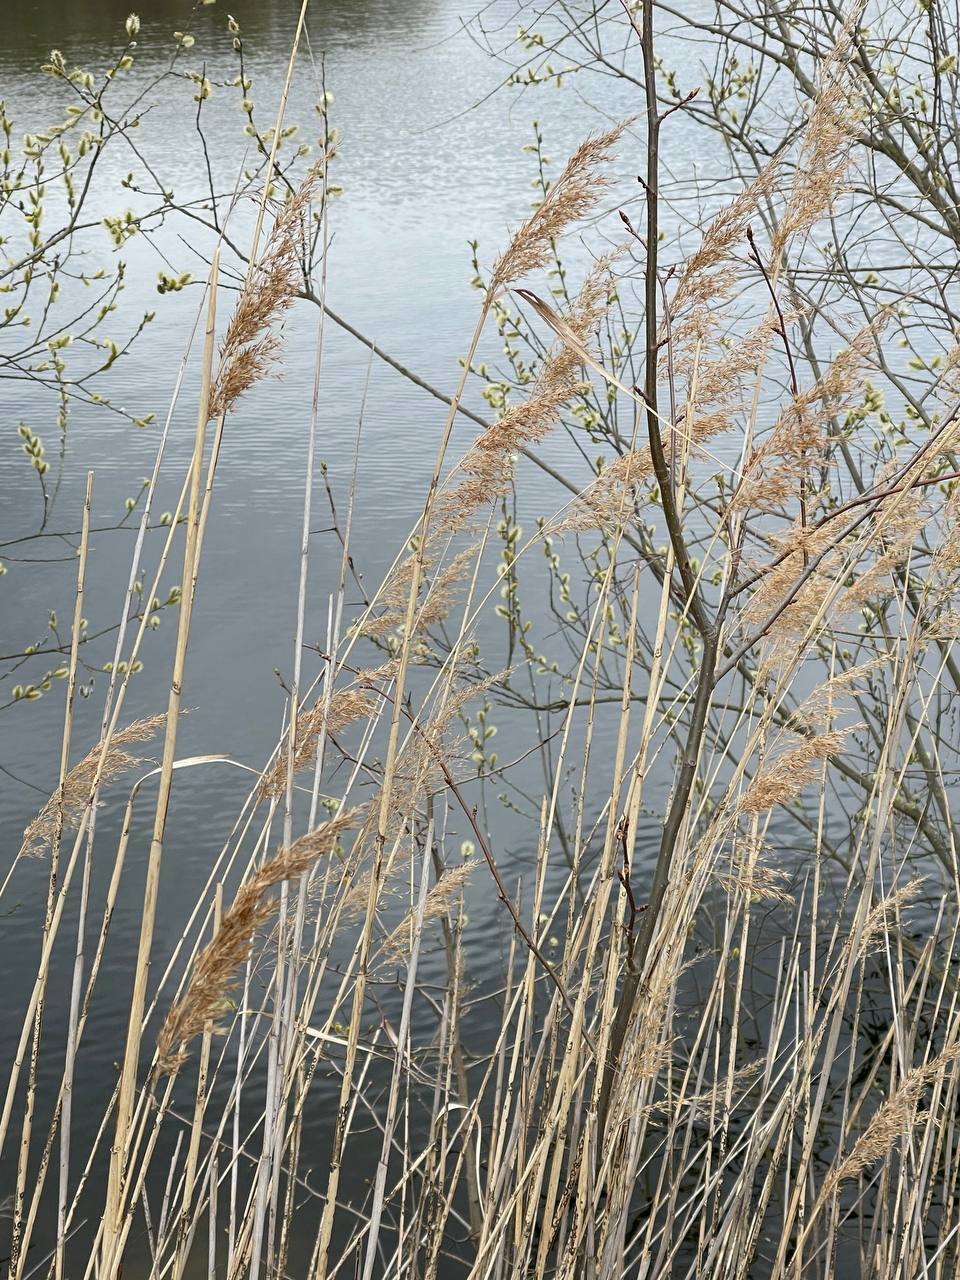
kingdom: Plantae
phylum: Tracheophyta
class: Liliopsida
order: Poales
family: Poaceae
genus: Phragmites
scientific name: Phragmites australis
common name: Common reed
